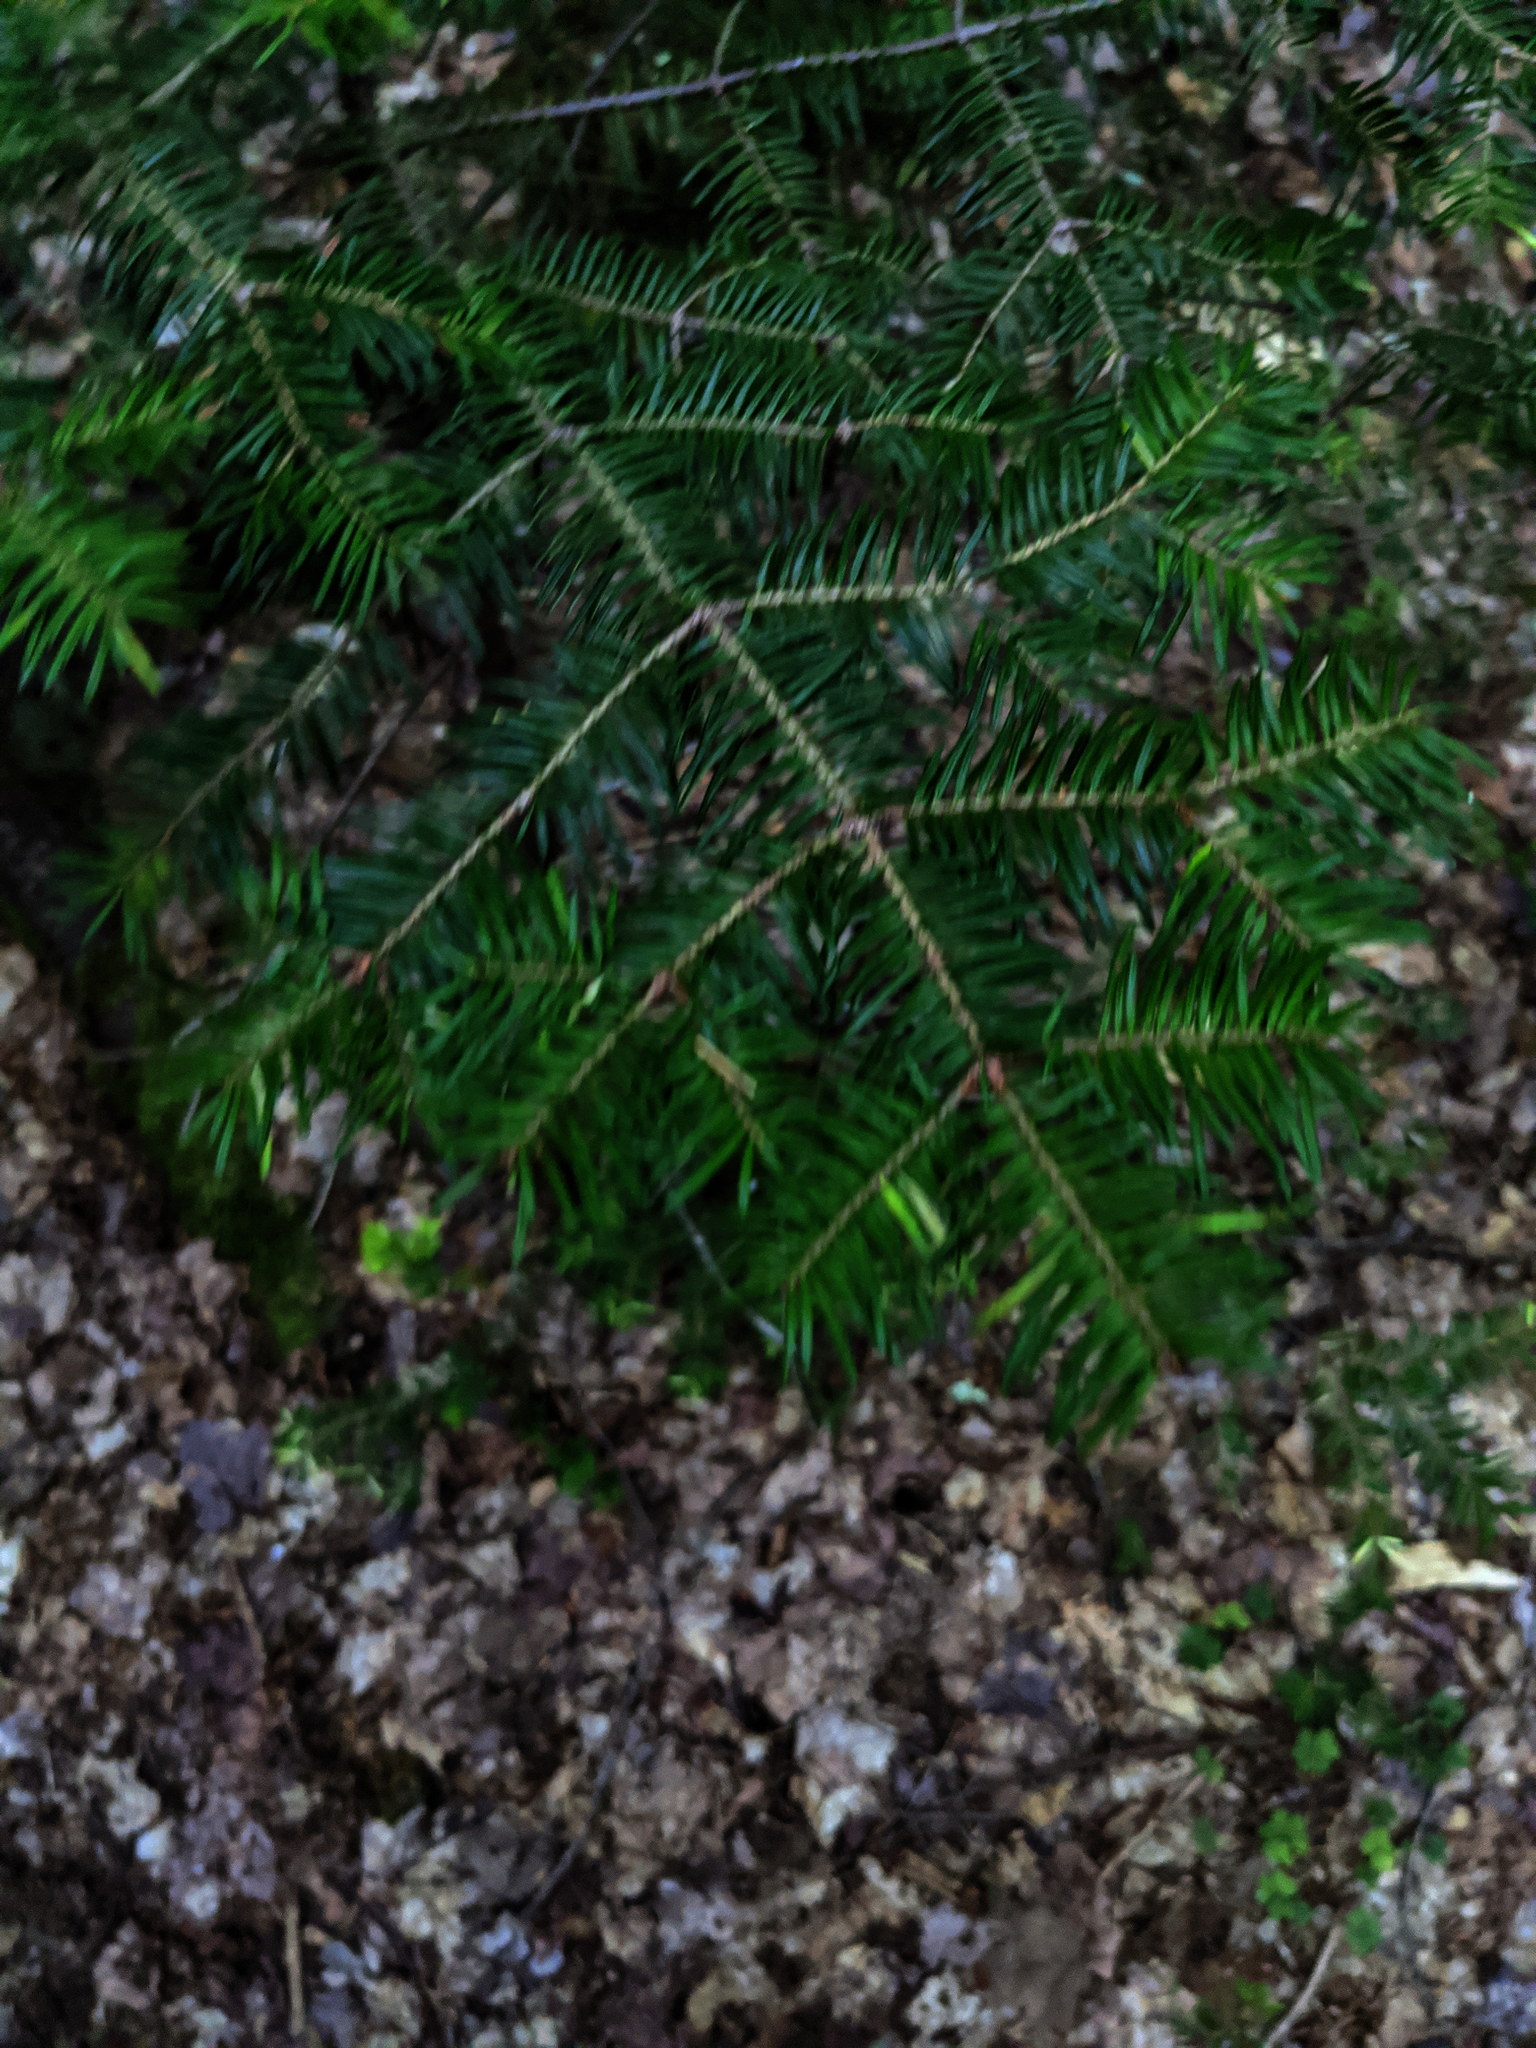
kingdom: Plantae
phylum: Tracheophyta
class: Pinopsida
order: Pinales
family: Pinaceae
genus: Abies
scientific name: Abies balsamea
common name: Balsam fir
